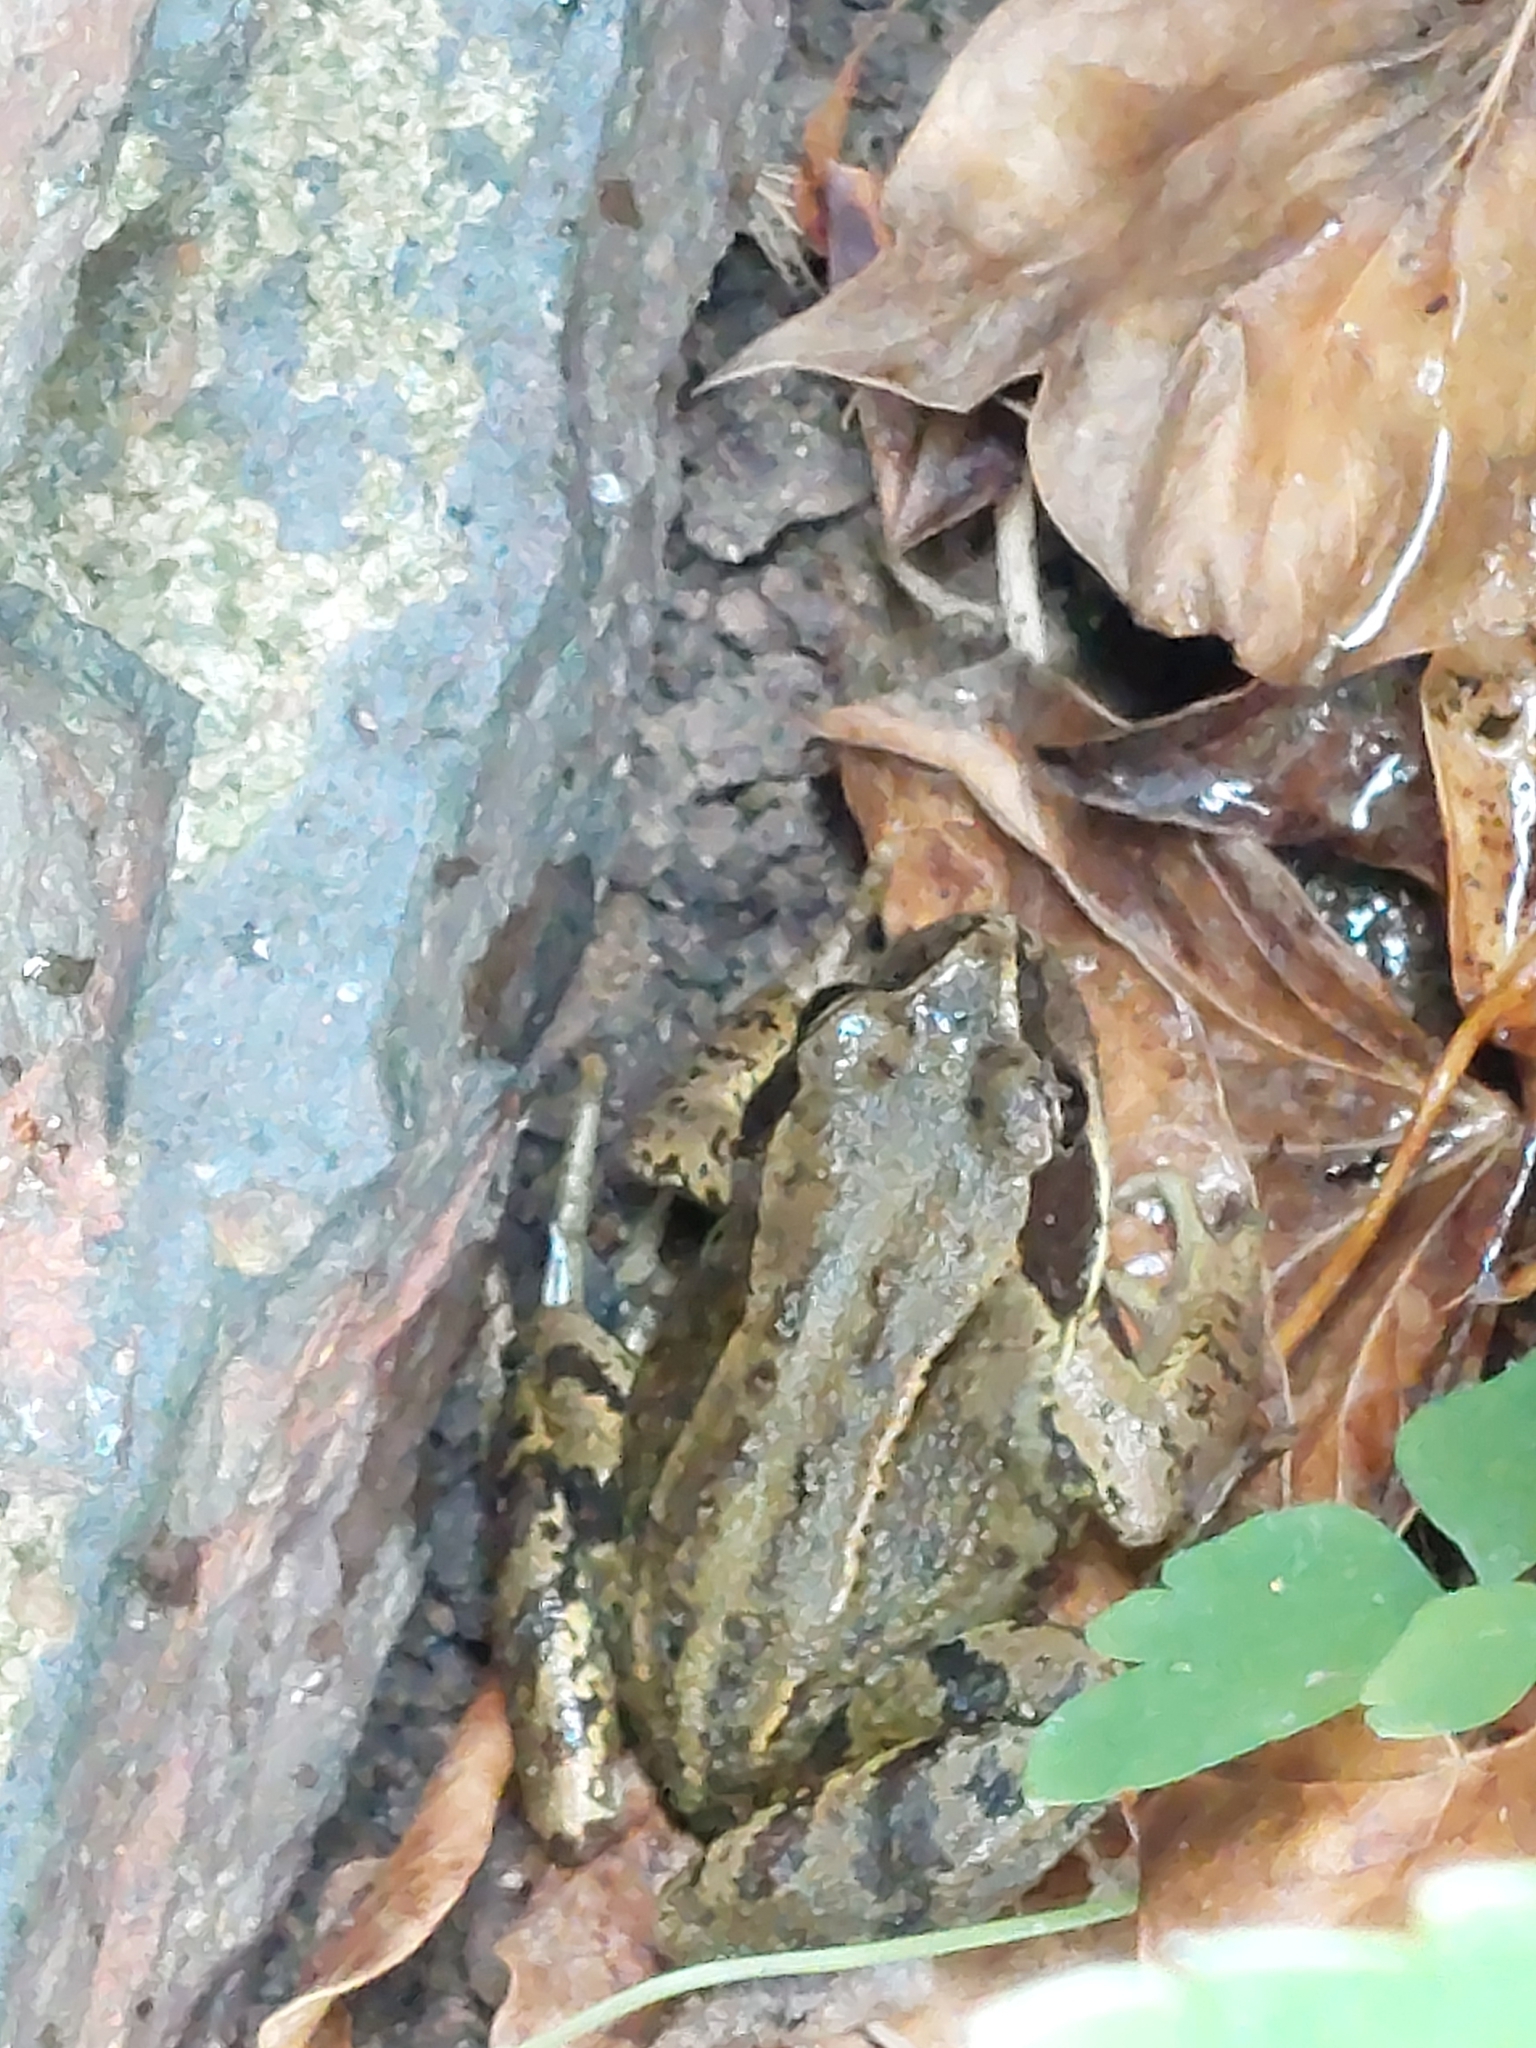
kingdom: Animalia
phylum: Chordata
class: Amphibia
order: Anura
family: Ranidae
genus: Rana
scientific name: Rana temporaria
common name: Common frog
